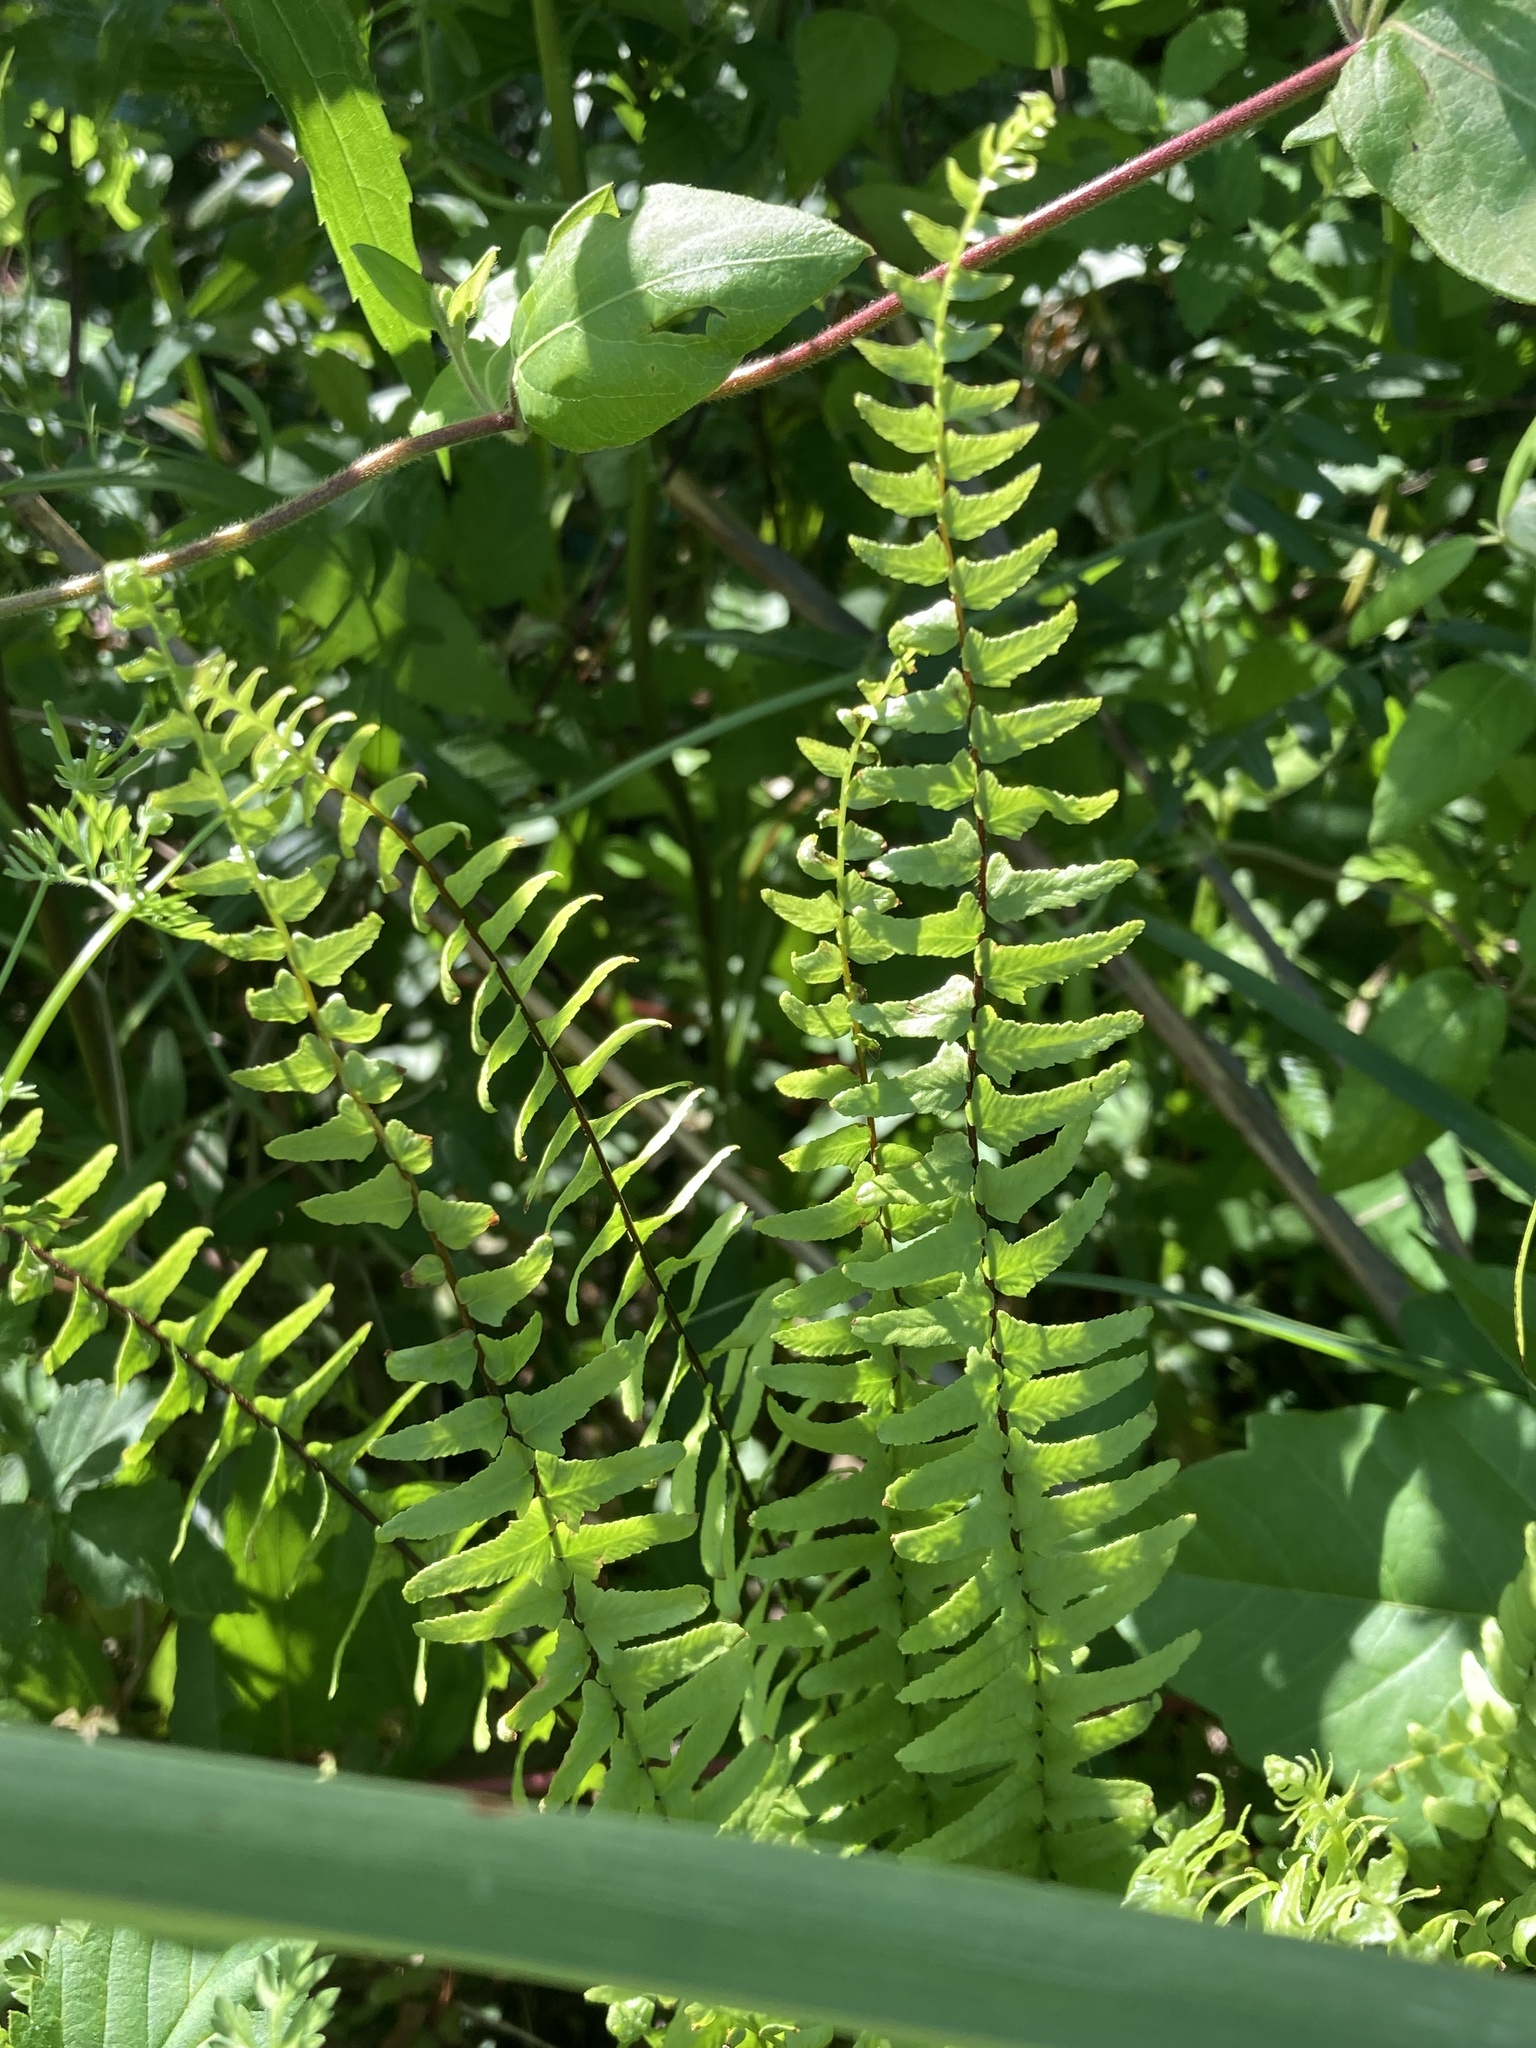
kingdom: Plantae
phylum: Tracheophyta
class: Polypodiopsida
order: Polypodiales
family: Aspleniaceae
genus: Asplenium
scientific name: Asplenium platyneuron
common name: Ebony spleenwort
